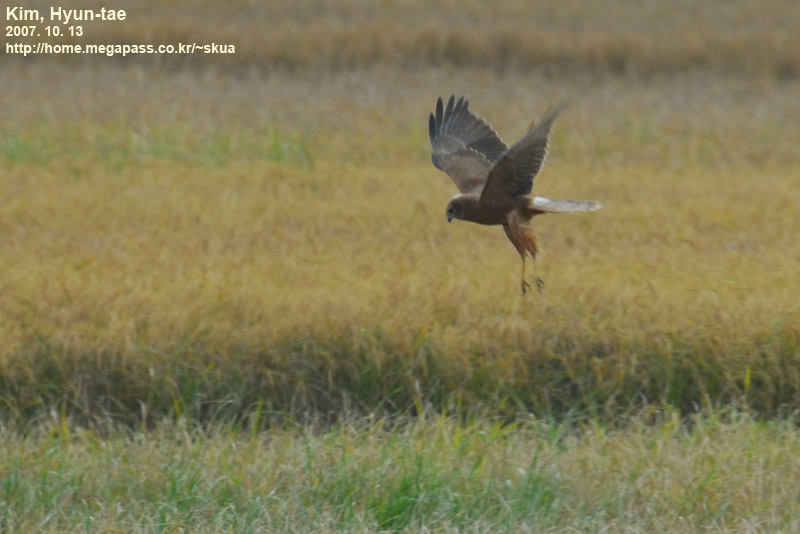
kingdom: Animalia
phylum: Chordata
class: Aves
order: Accipitriformes
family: Accipitridae
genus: Circus
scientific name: Circus spilonotus
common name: Eastern marsh-harrier
